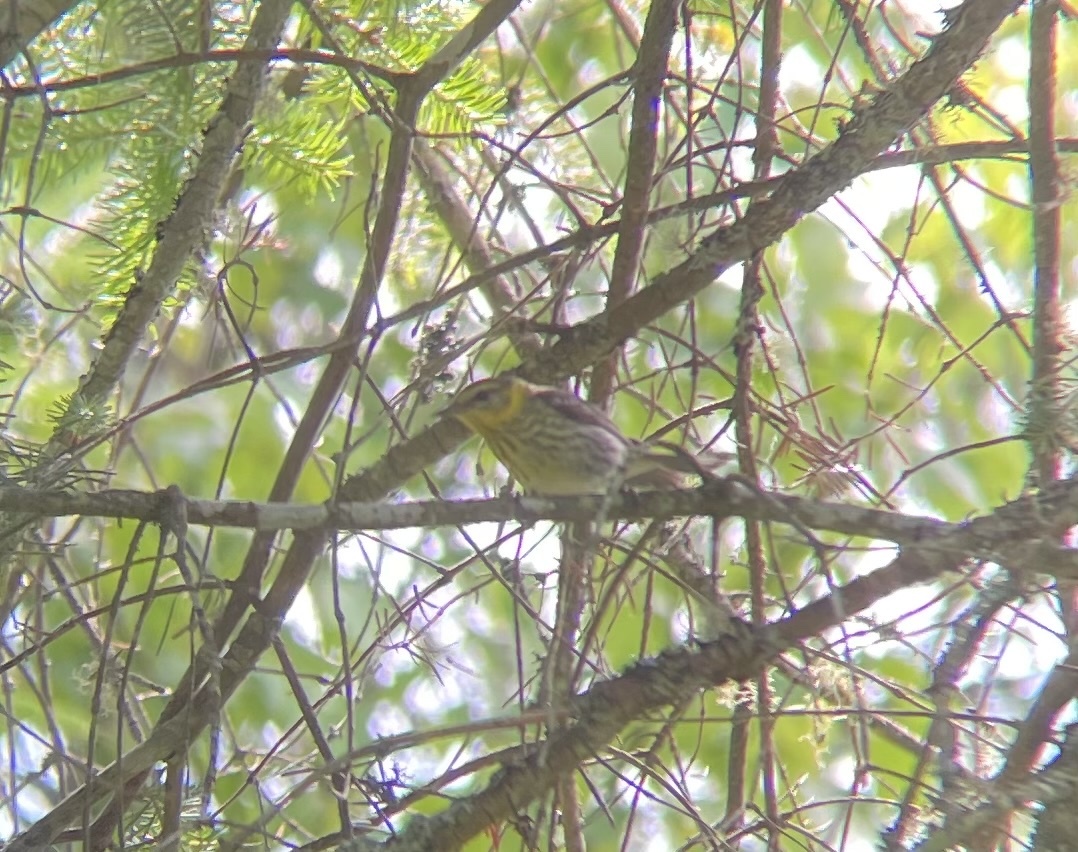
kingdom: Animalia
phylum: Chordata
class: Aves
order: Passeriformes
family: Parulidae
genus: Setophaga
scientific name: Setophaga tigrina
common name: Cape may warbler
